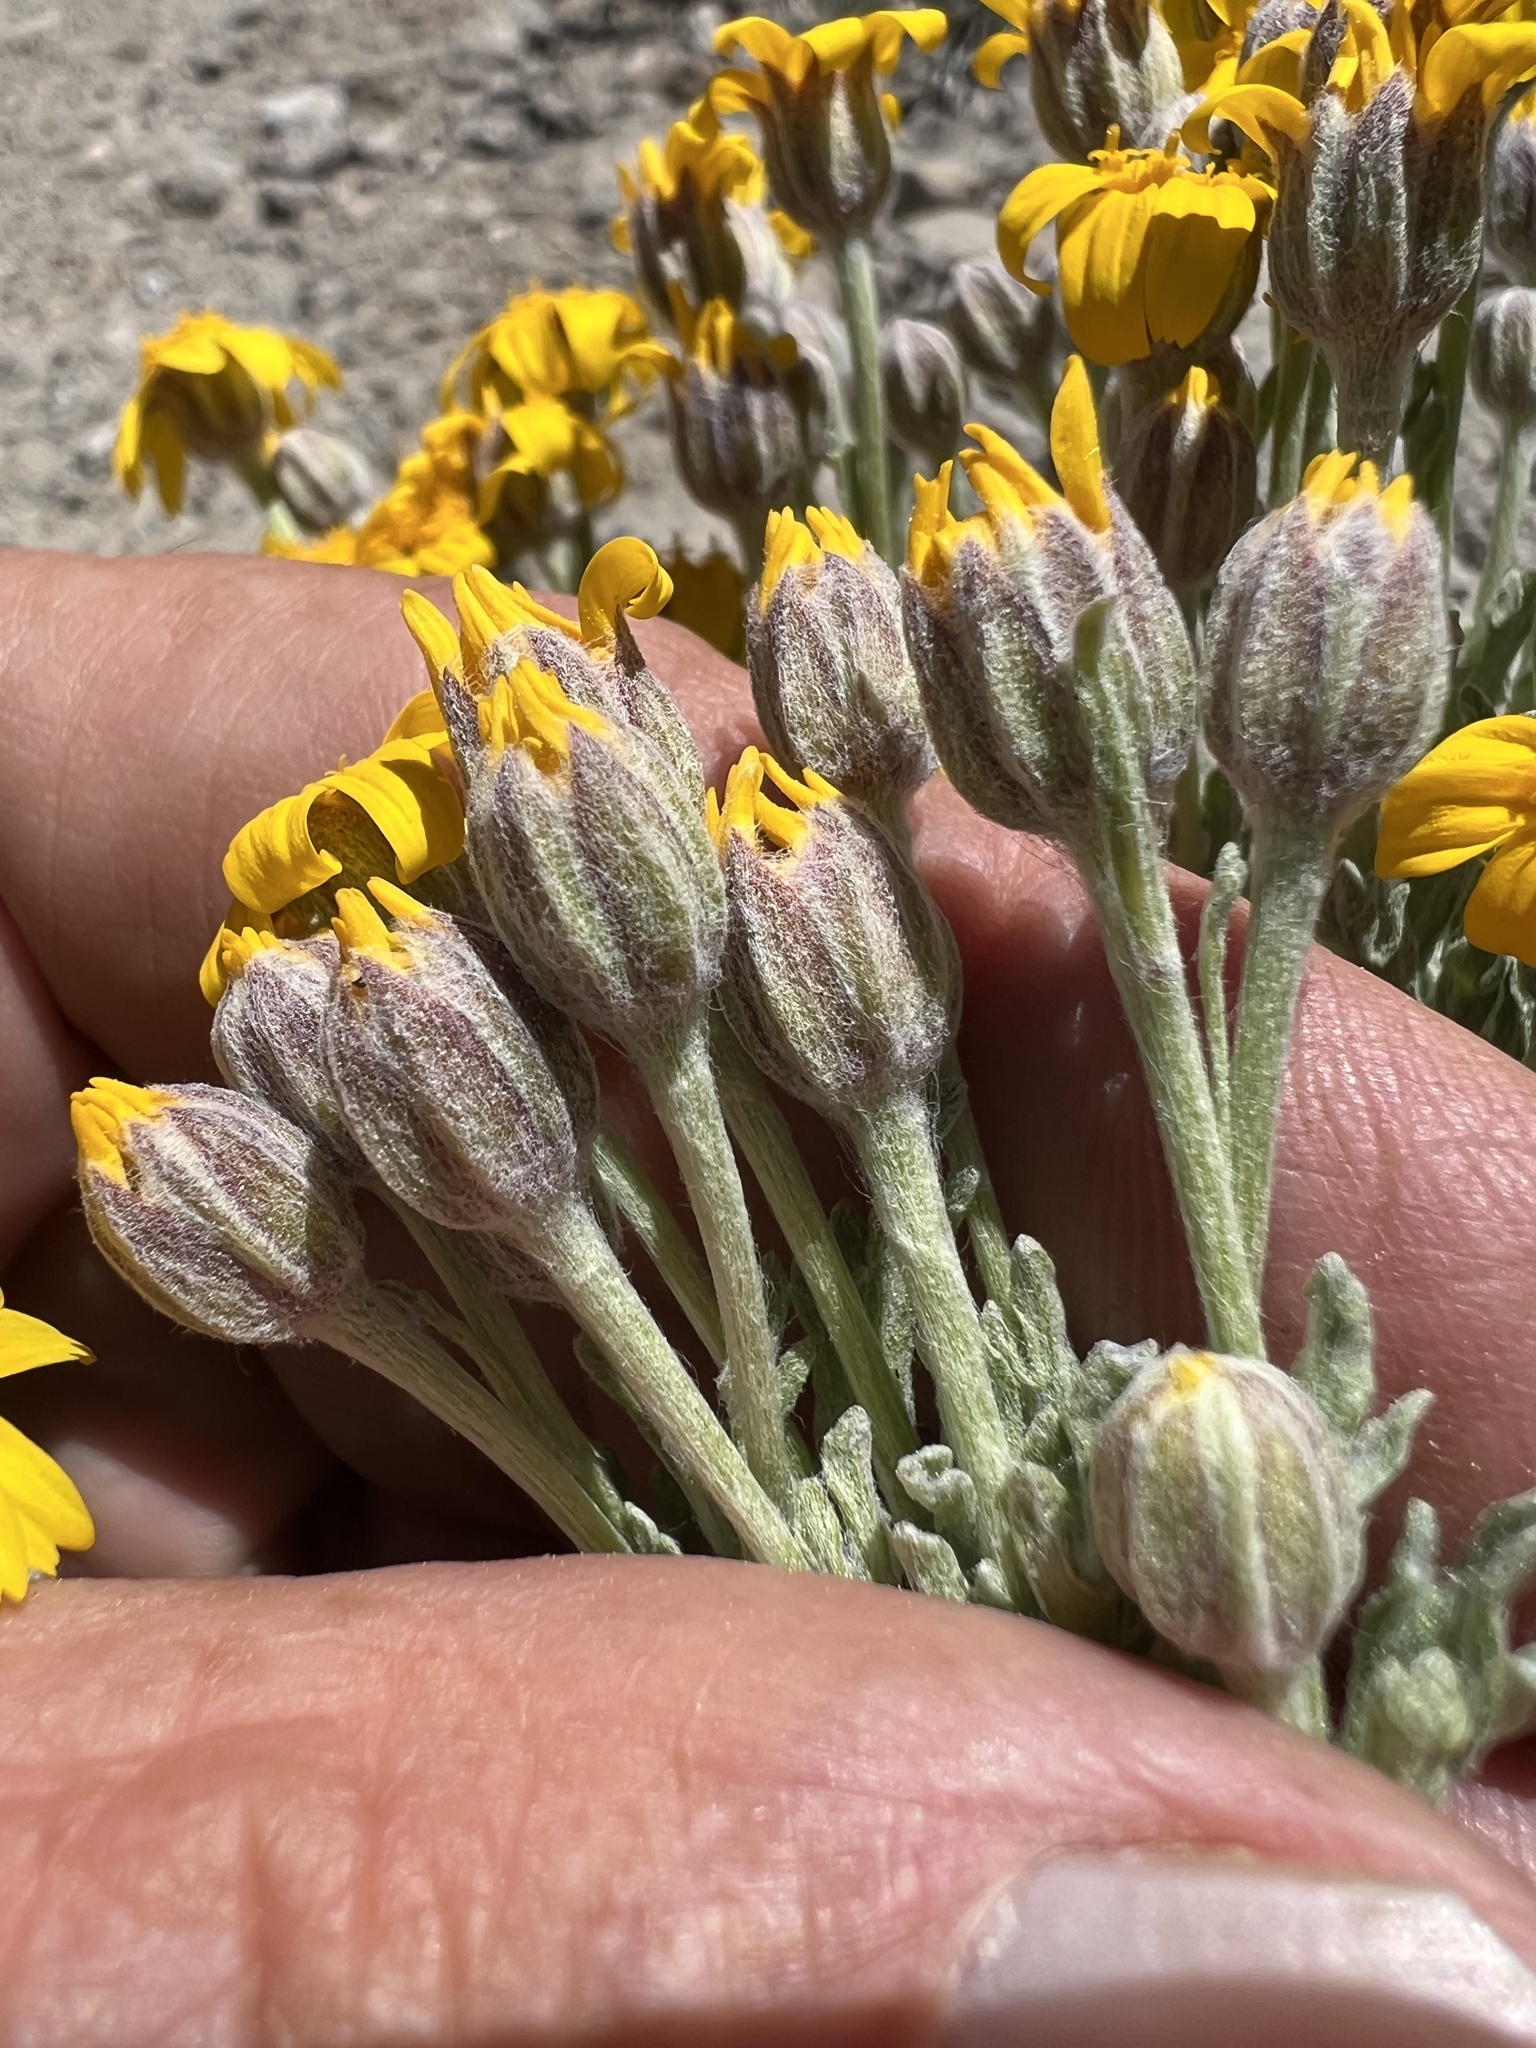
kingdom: Plantae
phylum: Tracheophyta
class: Magnoliopsida
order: Asterales
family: Asteraceae
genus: Eriophyllum
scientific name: Eriophyllum lanatum
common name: Common woolly-sunflower
